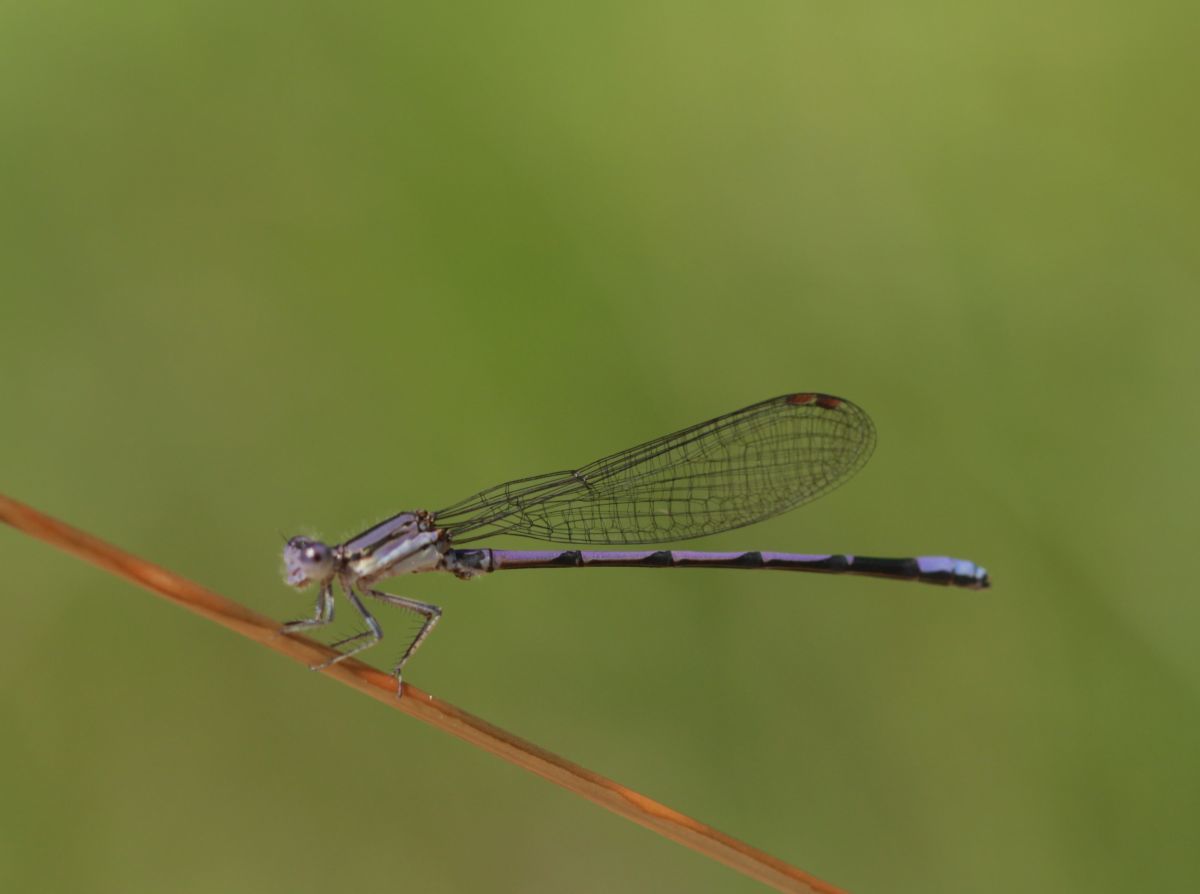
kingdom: Animalia
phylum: Arthropoda
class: Insecta
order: Odonata
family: Coenagrionidae
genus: Argia
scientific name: Argia fumipennis
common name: Variable dancer
